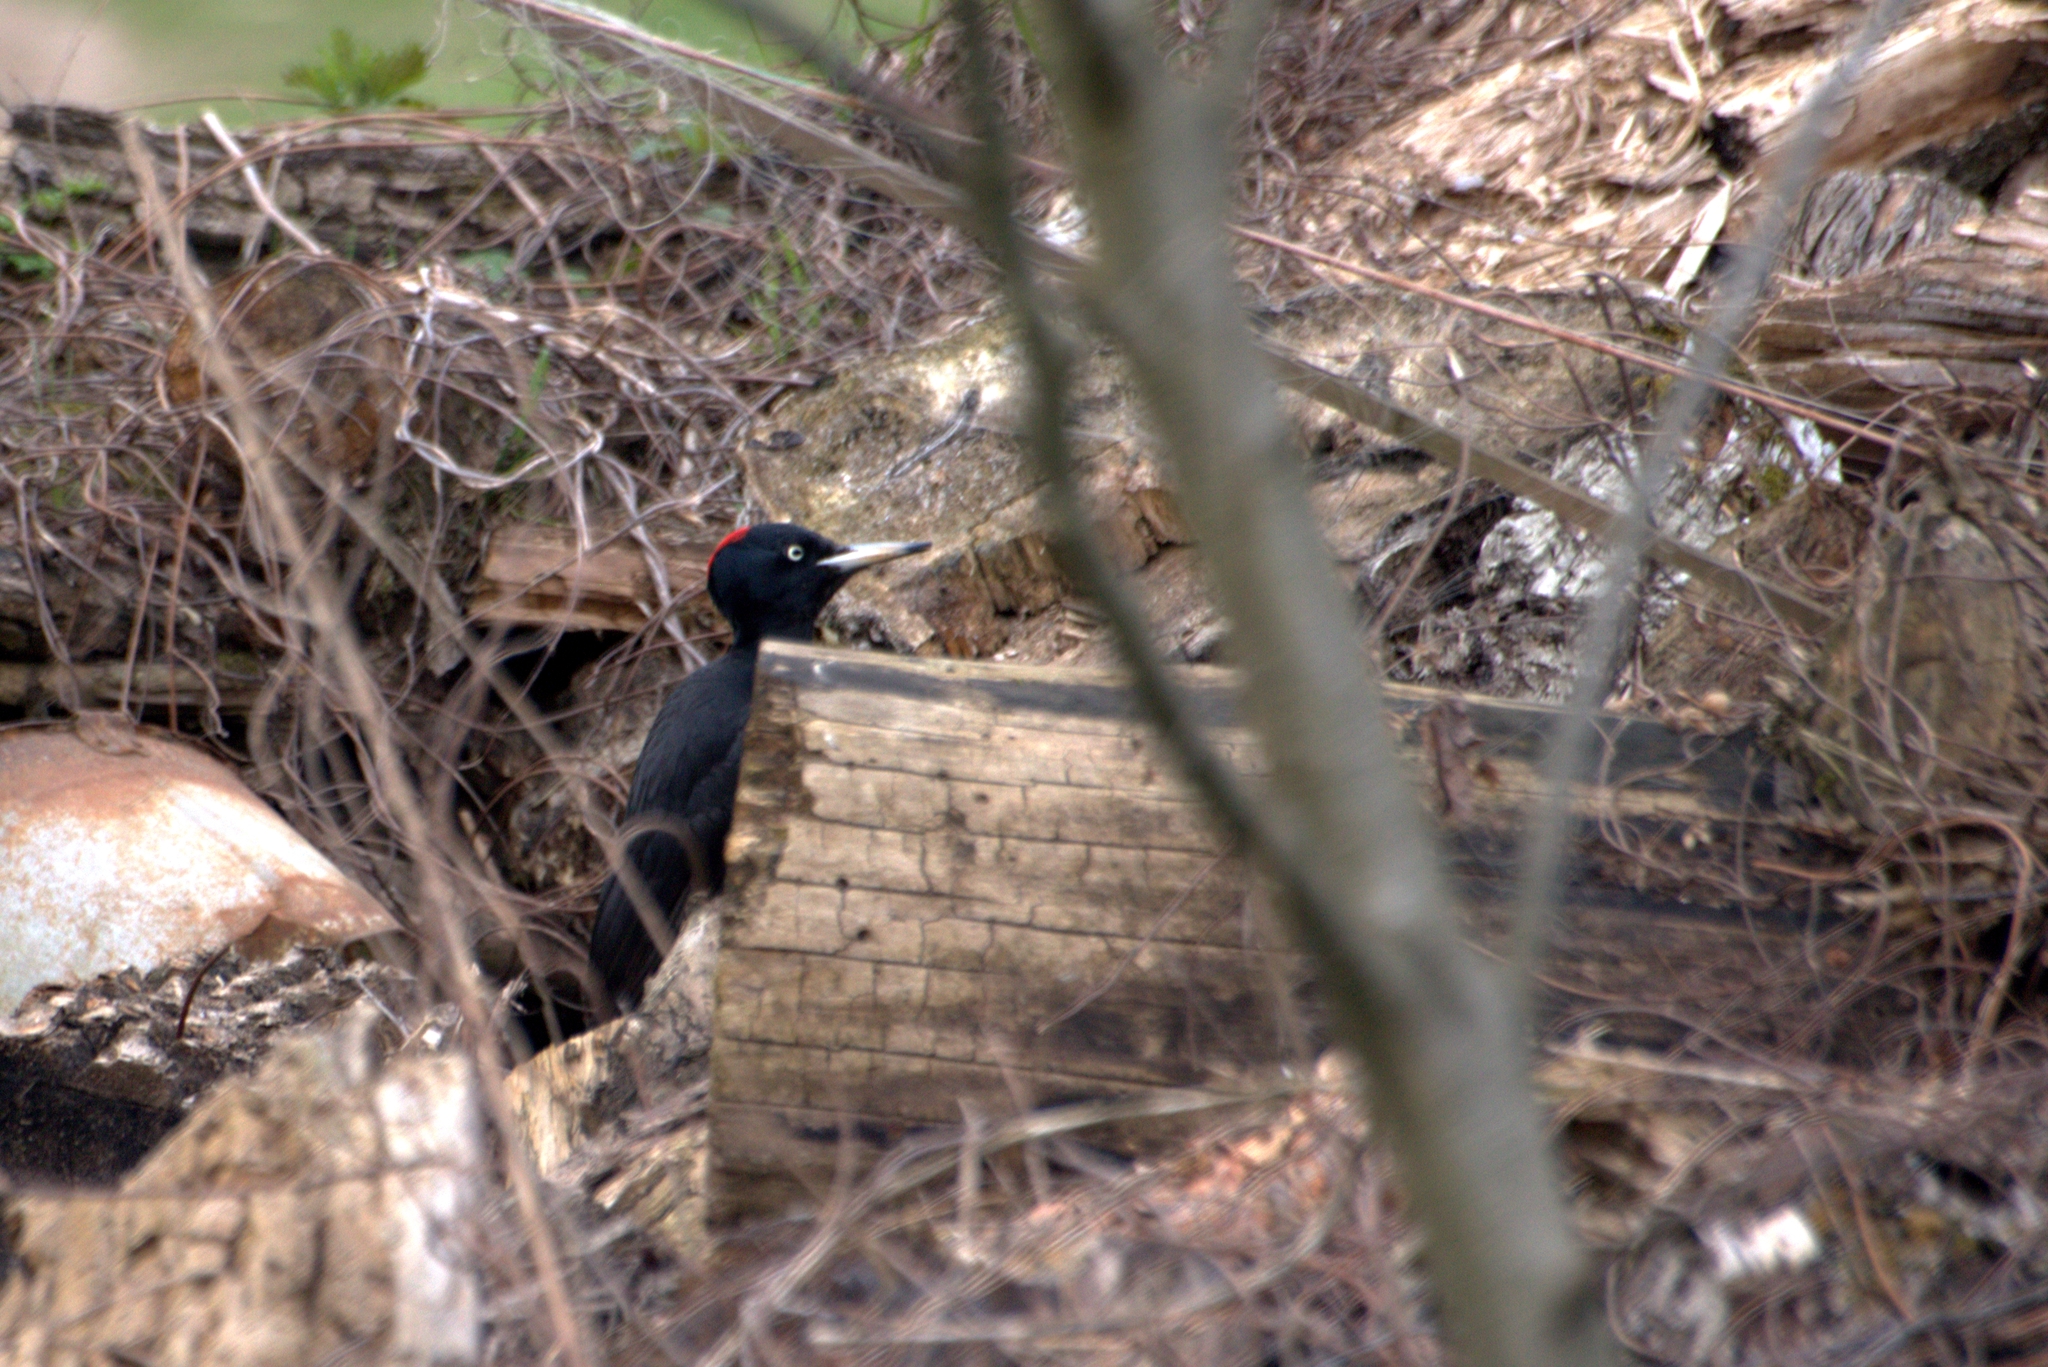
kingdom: Animalia
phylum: Chordata
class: Aves
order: Piciformes
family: Picidae
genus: Dryocopus
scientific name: Dryocopus martius
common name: Black woodpecker
